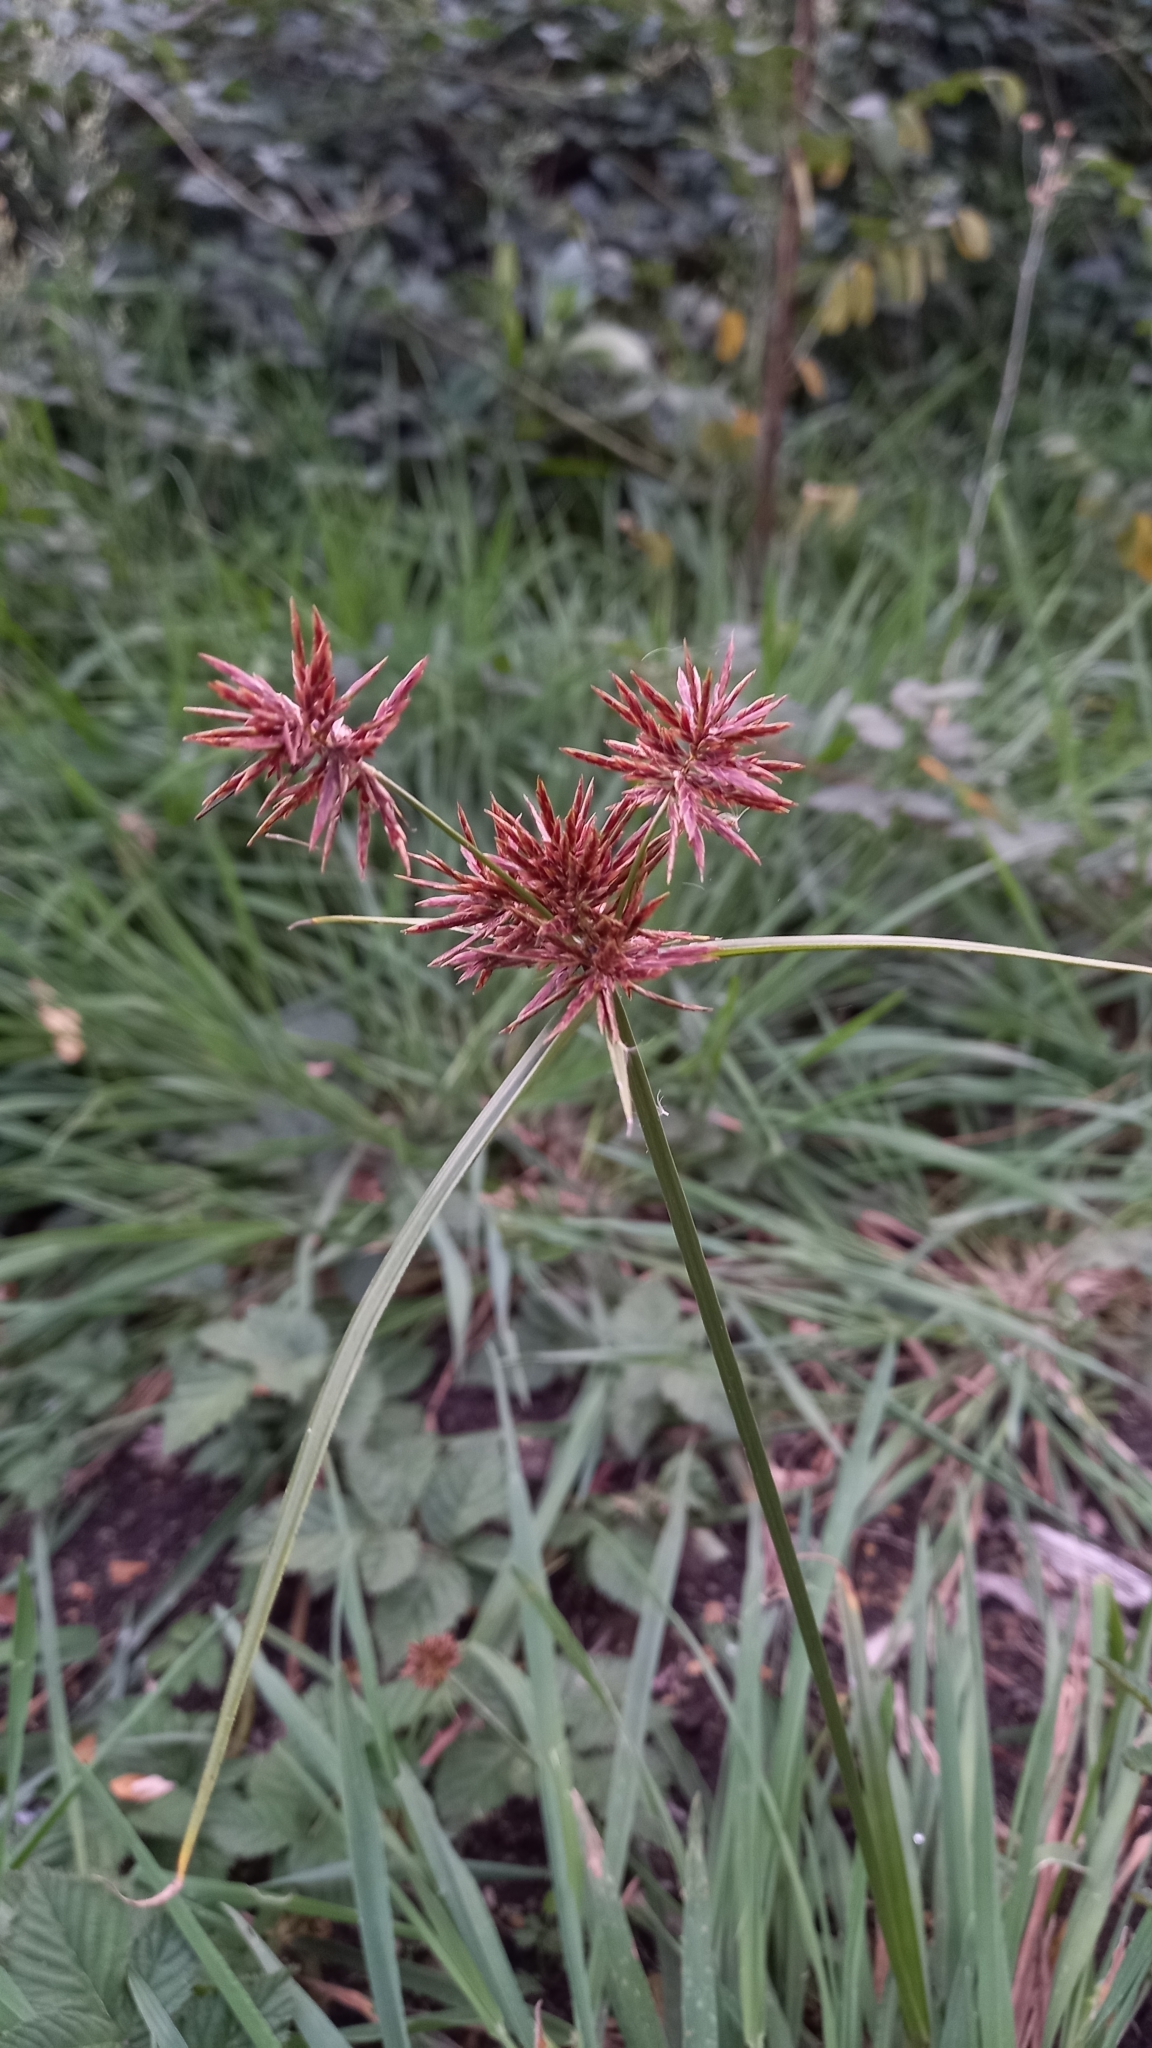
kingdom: Plantae
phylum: Tracheophyta
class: Liliopsida
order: Poales
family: Cyperaceae
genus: Cyperus
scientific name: Cyperus congestus
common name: Dense flat sedge
